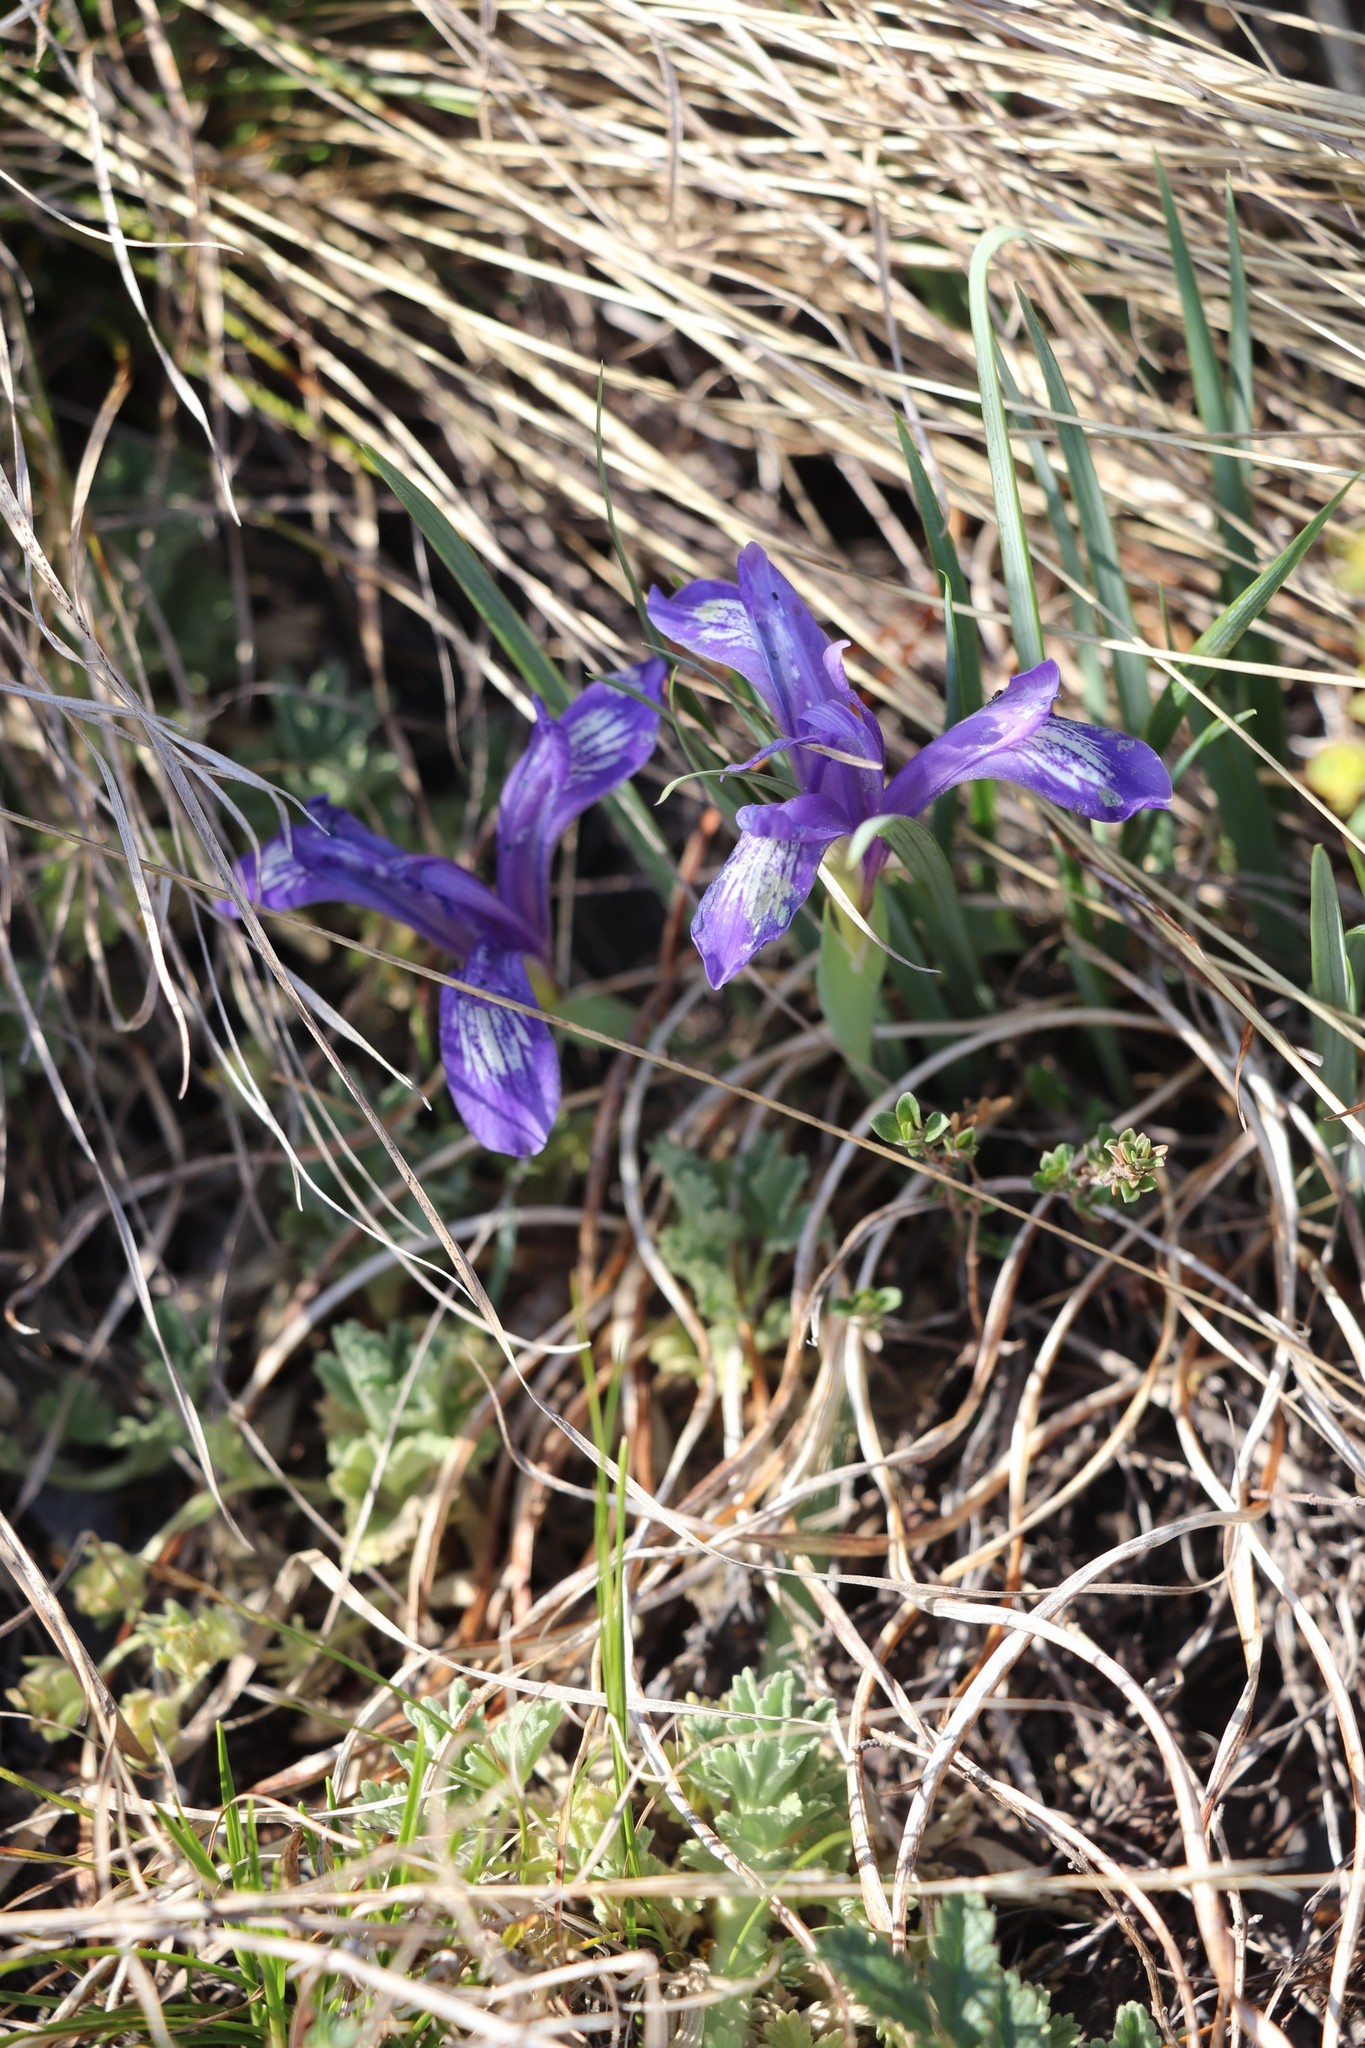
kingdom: Plantae
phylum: Tracheophyta
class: Liliopsida
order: Asparagales
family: Iridaceae
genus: Iris
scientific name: Iris ruthenica
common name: Purple-bract iris
